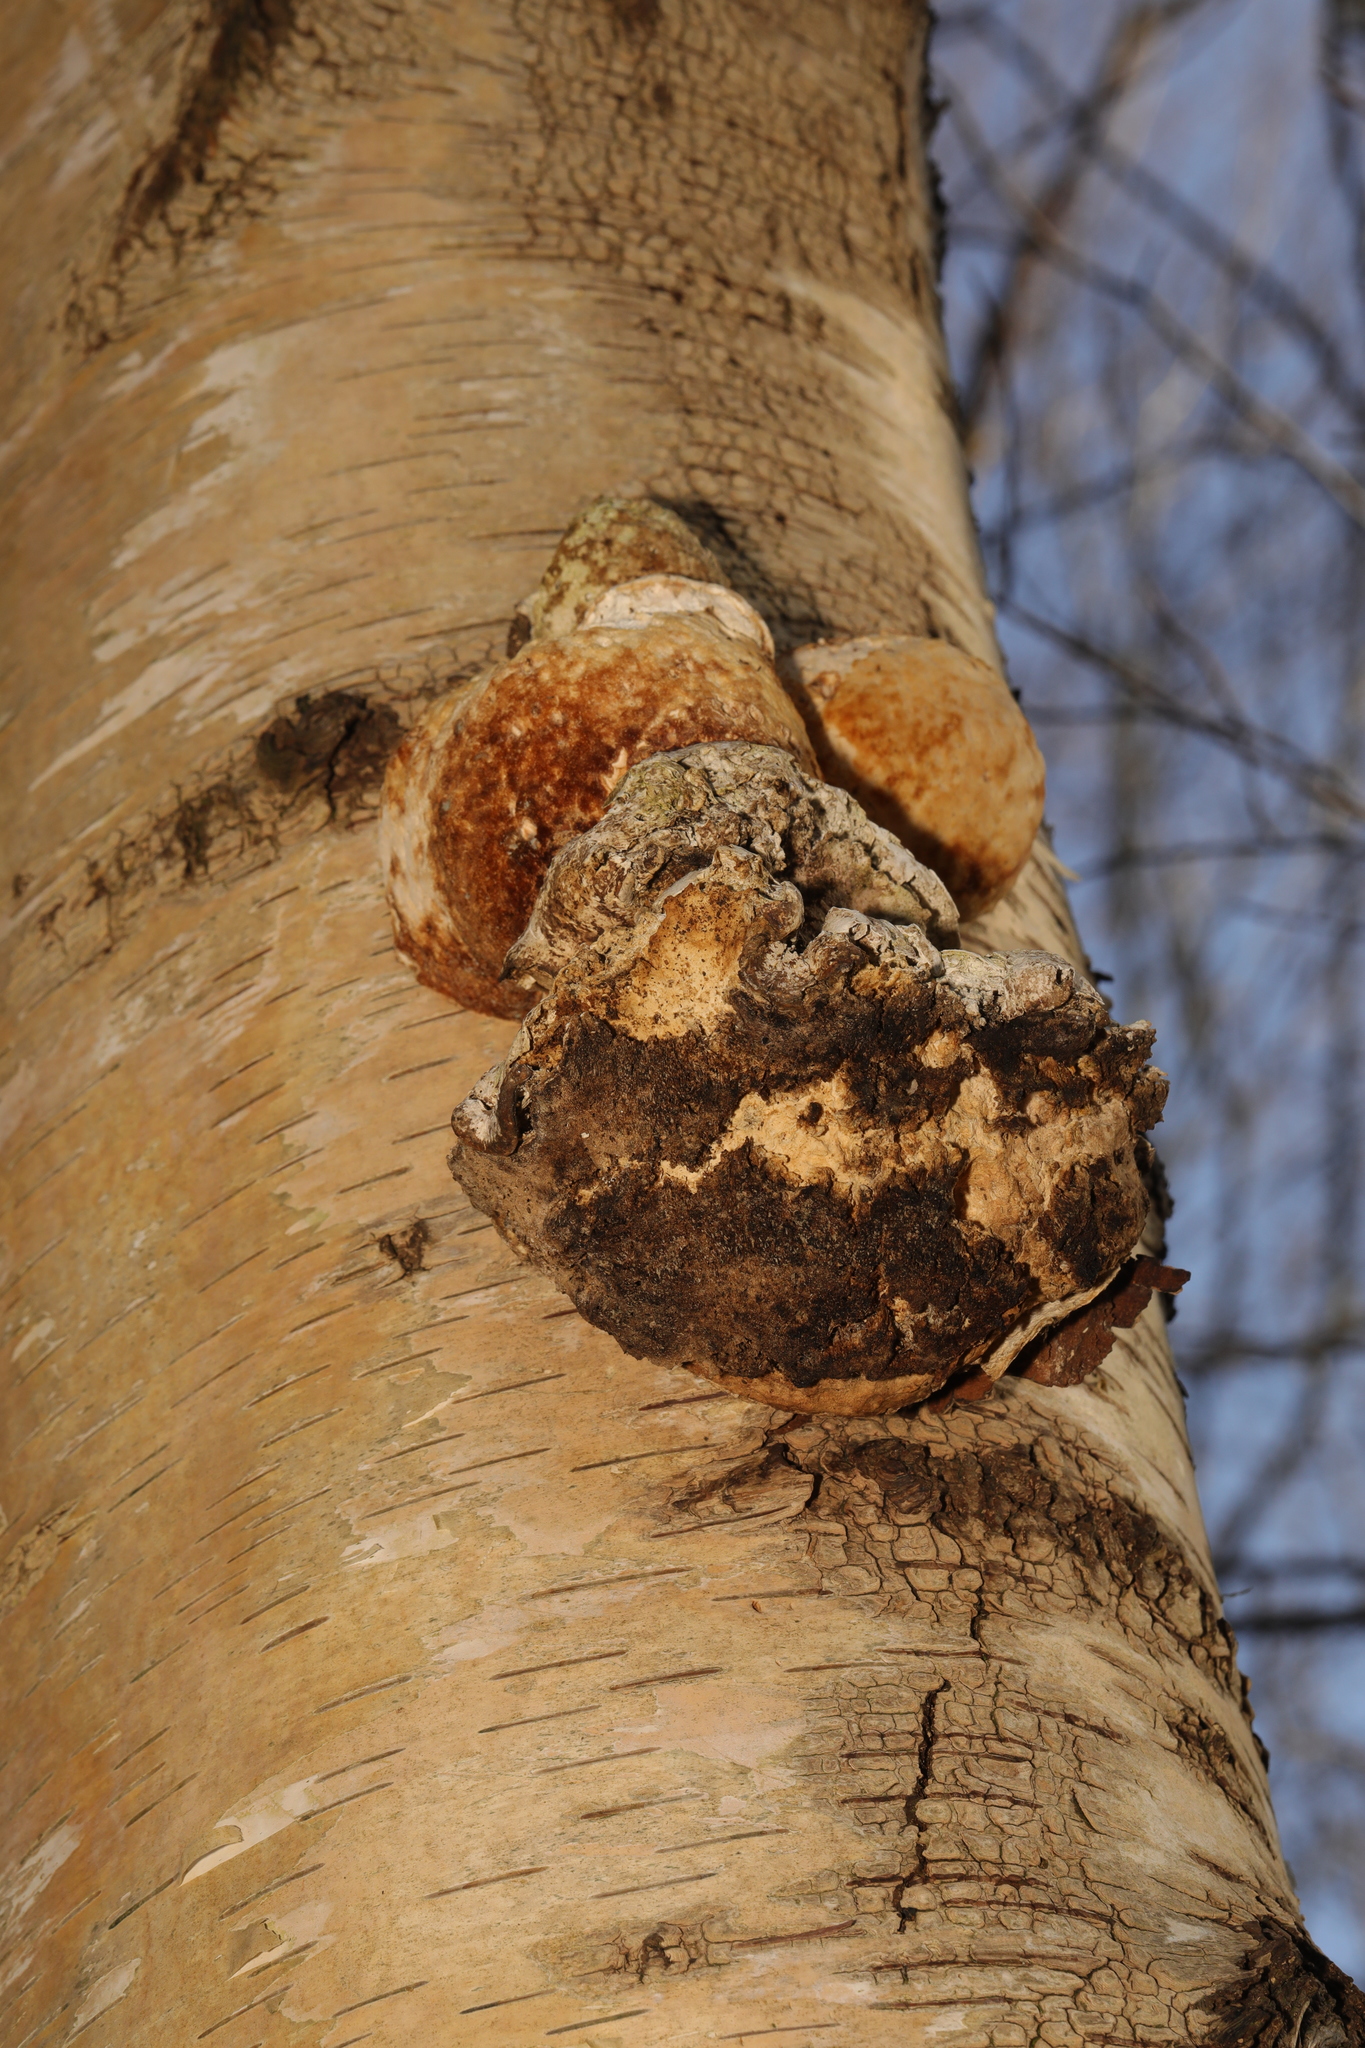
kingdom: Fungi
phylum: Basidiomycota
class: Agaricomycetes
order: Polyporales
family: Polyporaceae
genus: Fomes
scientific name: Fomes fomentarius
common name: Hoof fungus
